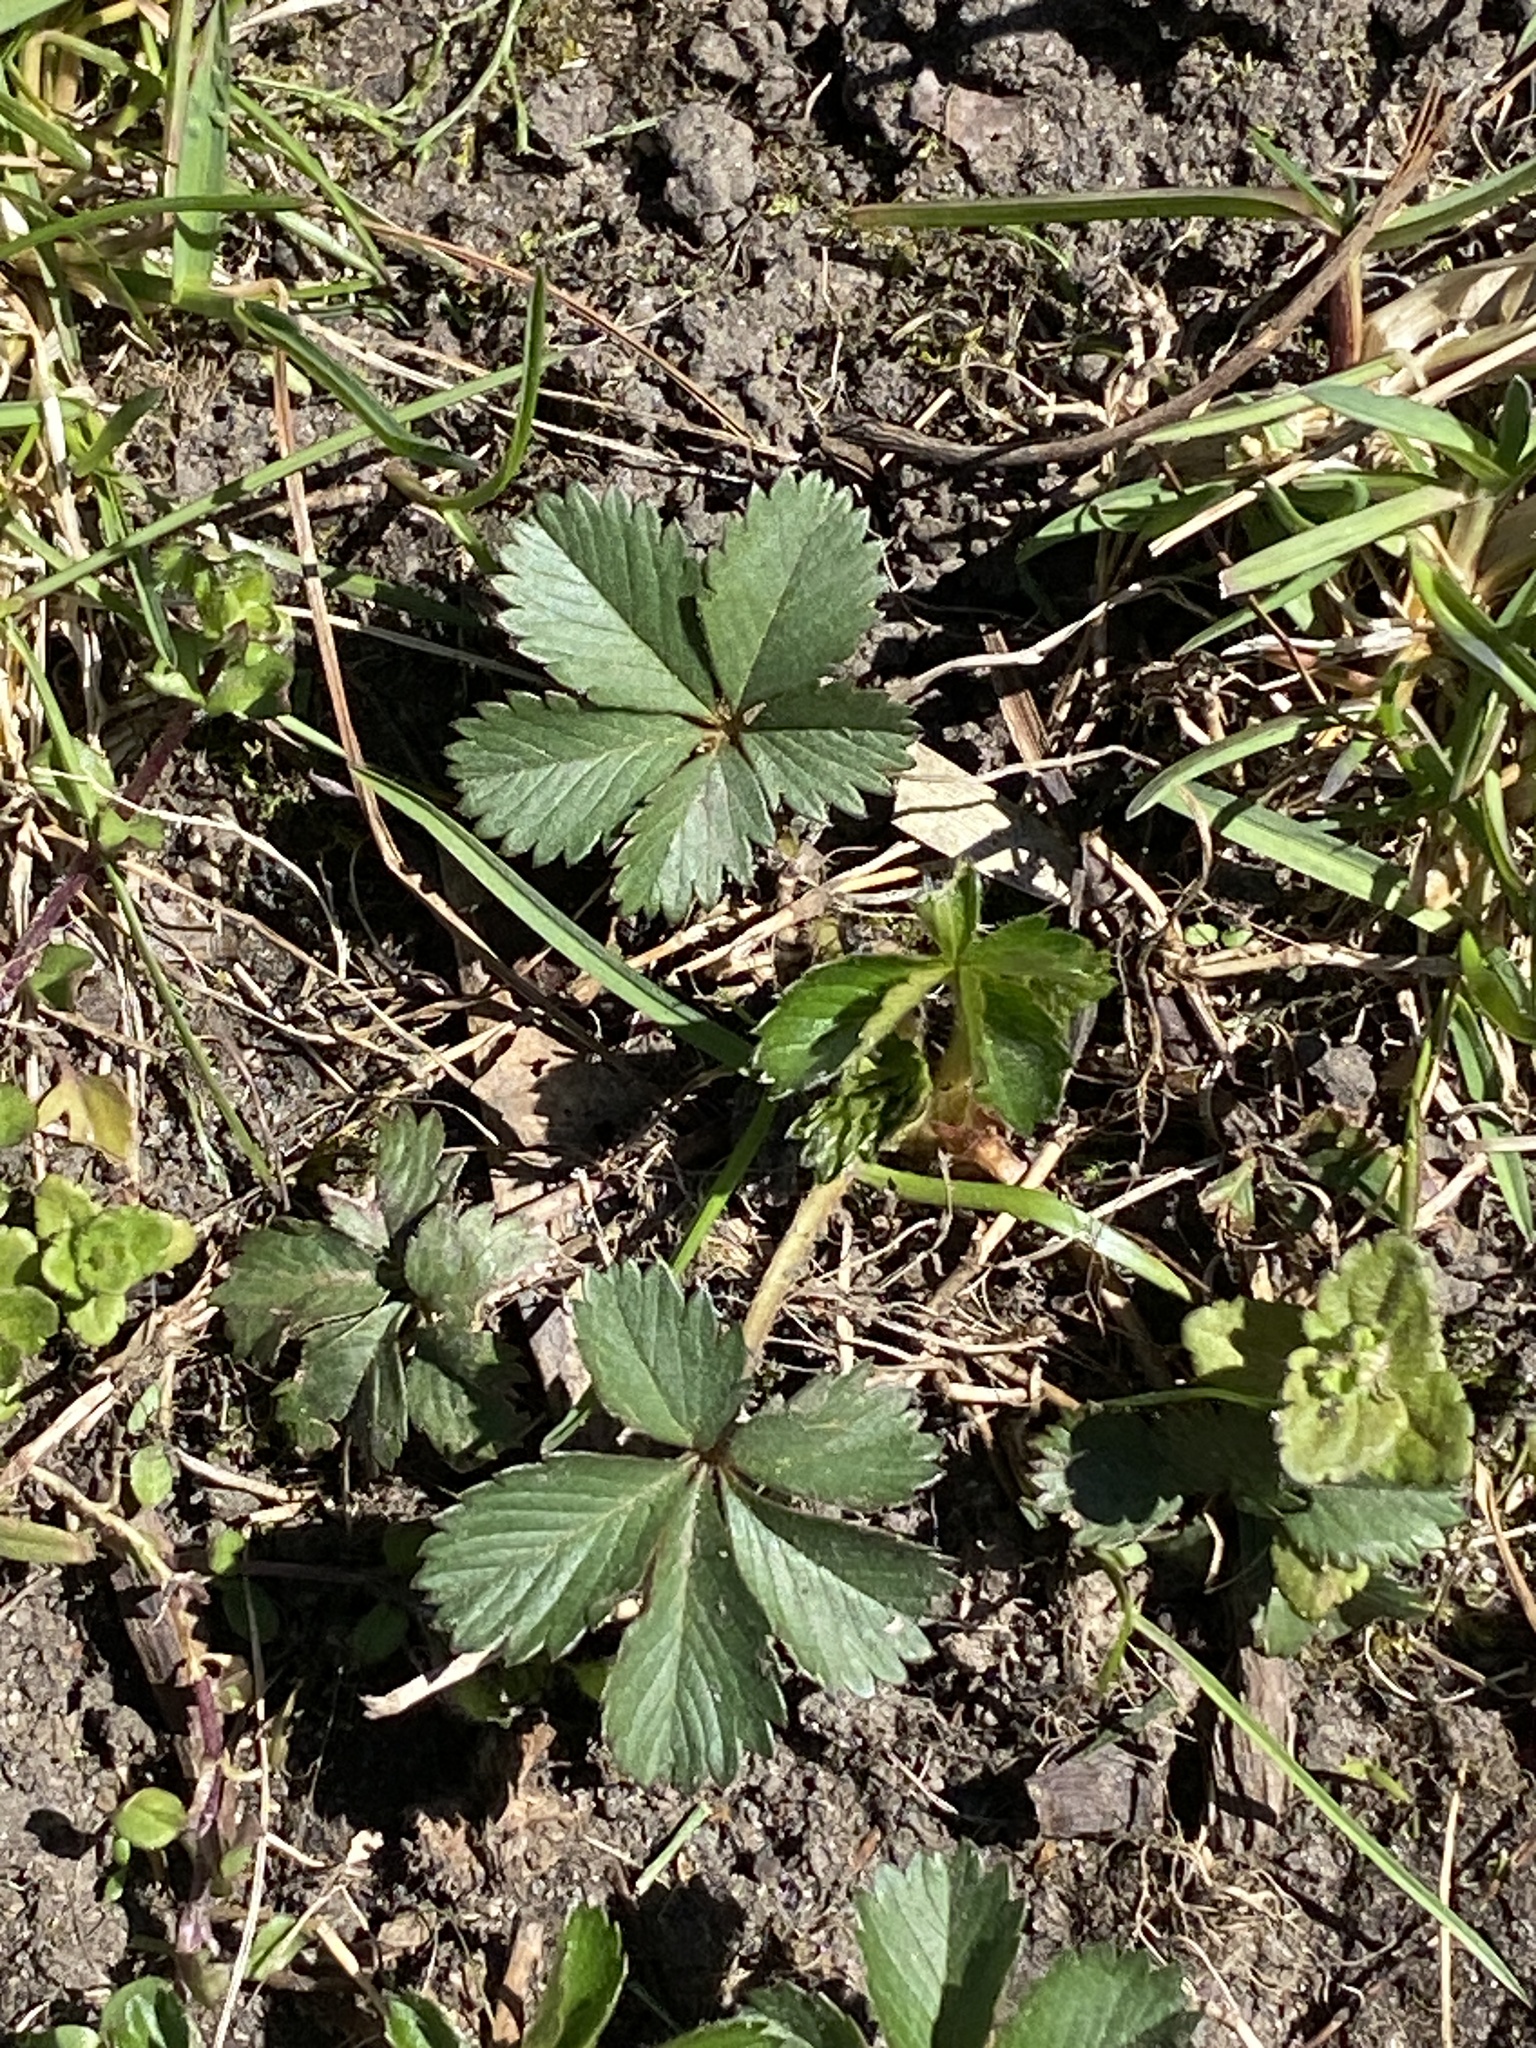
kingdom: Plantae
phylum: Tracheophyta
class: Magnoliopsida
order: Rosales
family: Rosaceae
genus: Potentilla
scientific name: Potentilla canadensis
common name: Canada cinquefoil
